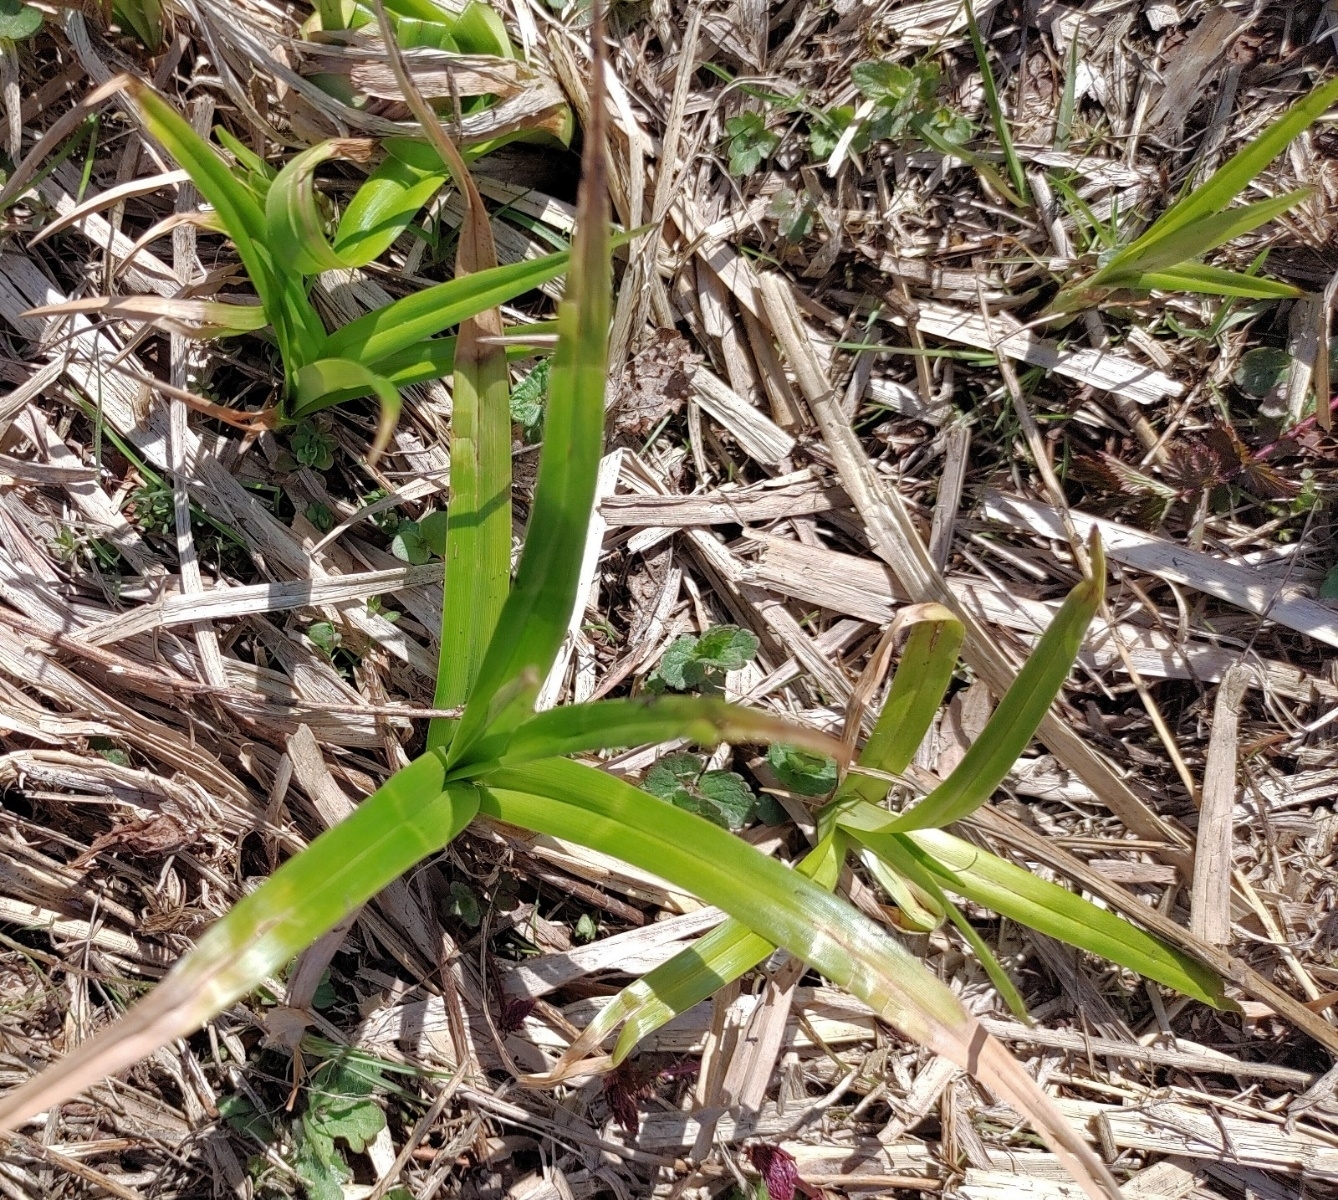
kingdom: Plantae
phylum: Tracheophyta
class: Liliopsida
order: Poales
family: Cyperaceae
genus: Scirpus
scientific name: Scirpus sylvaticus
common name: Wood club-rush
